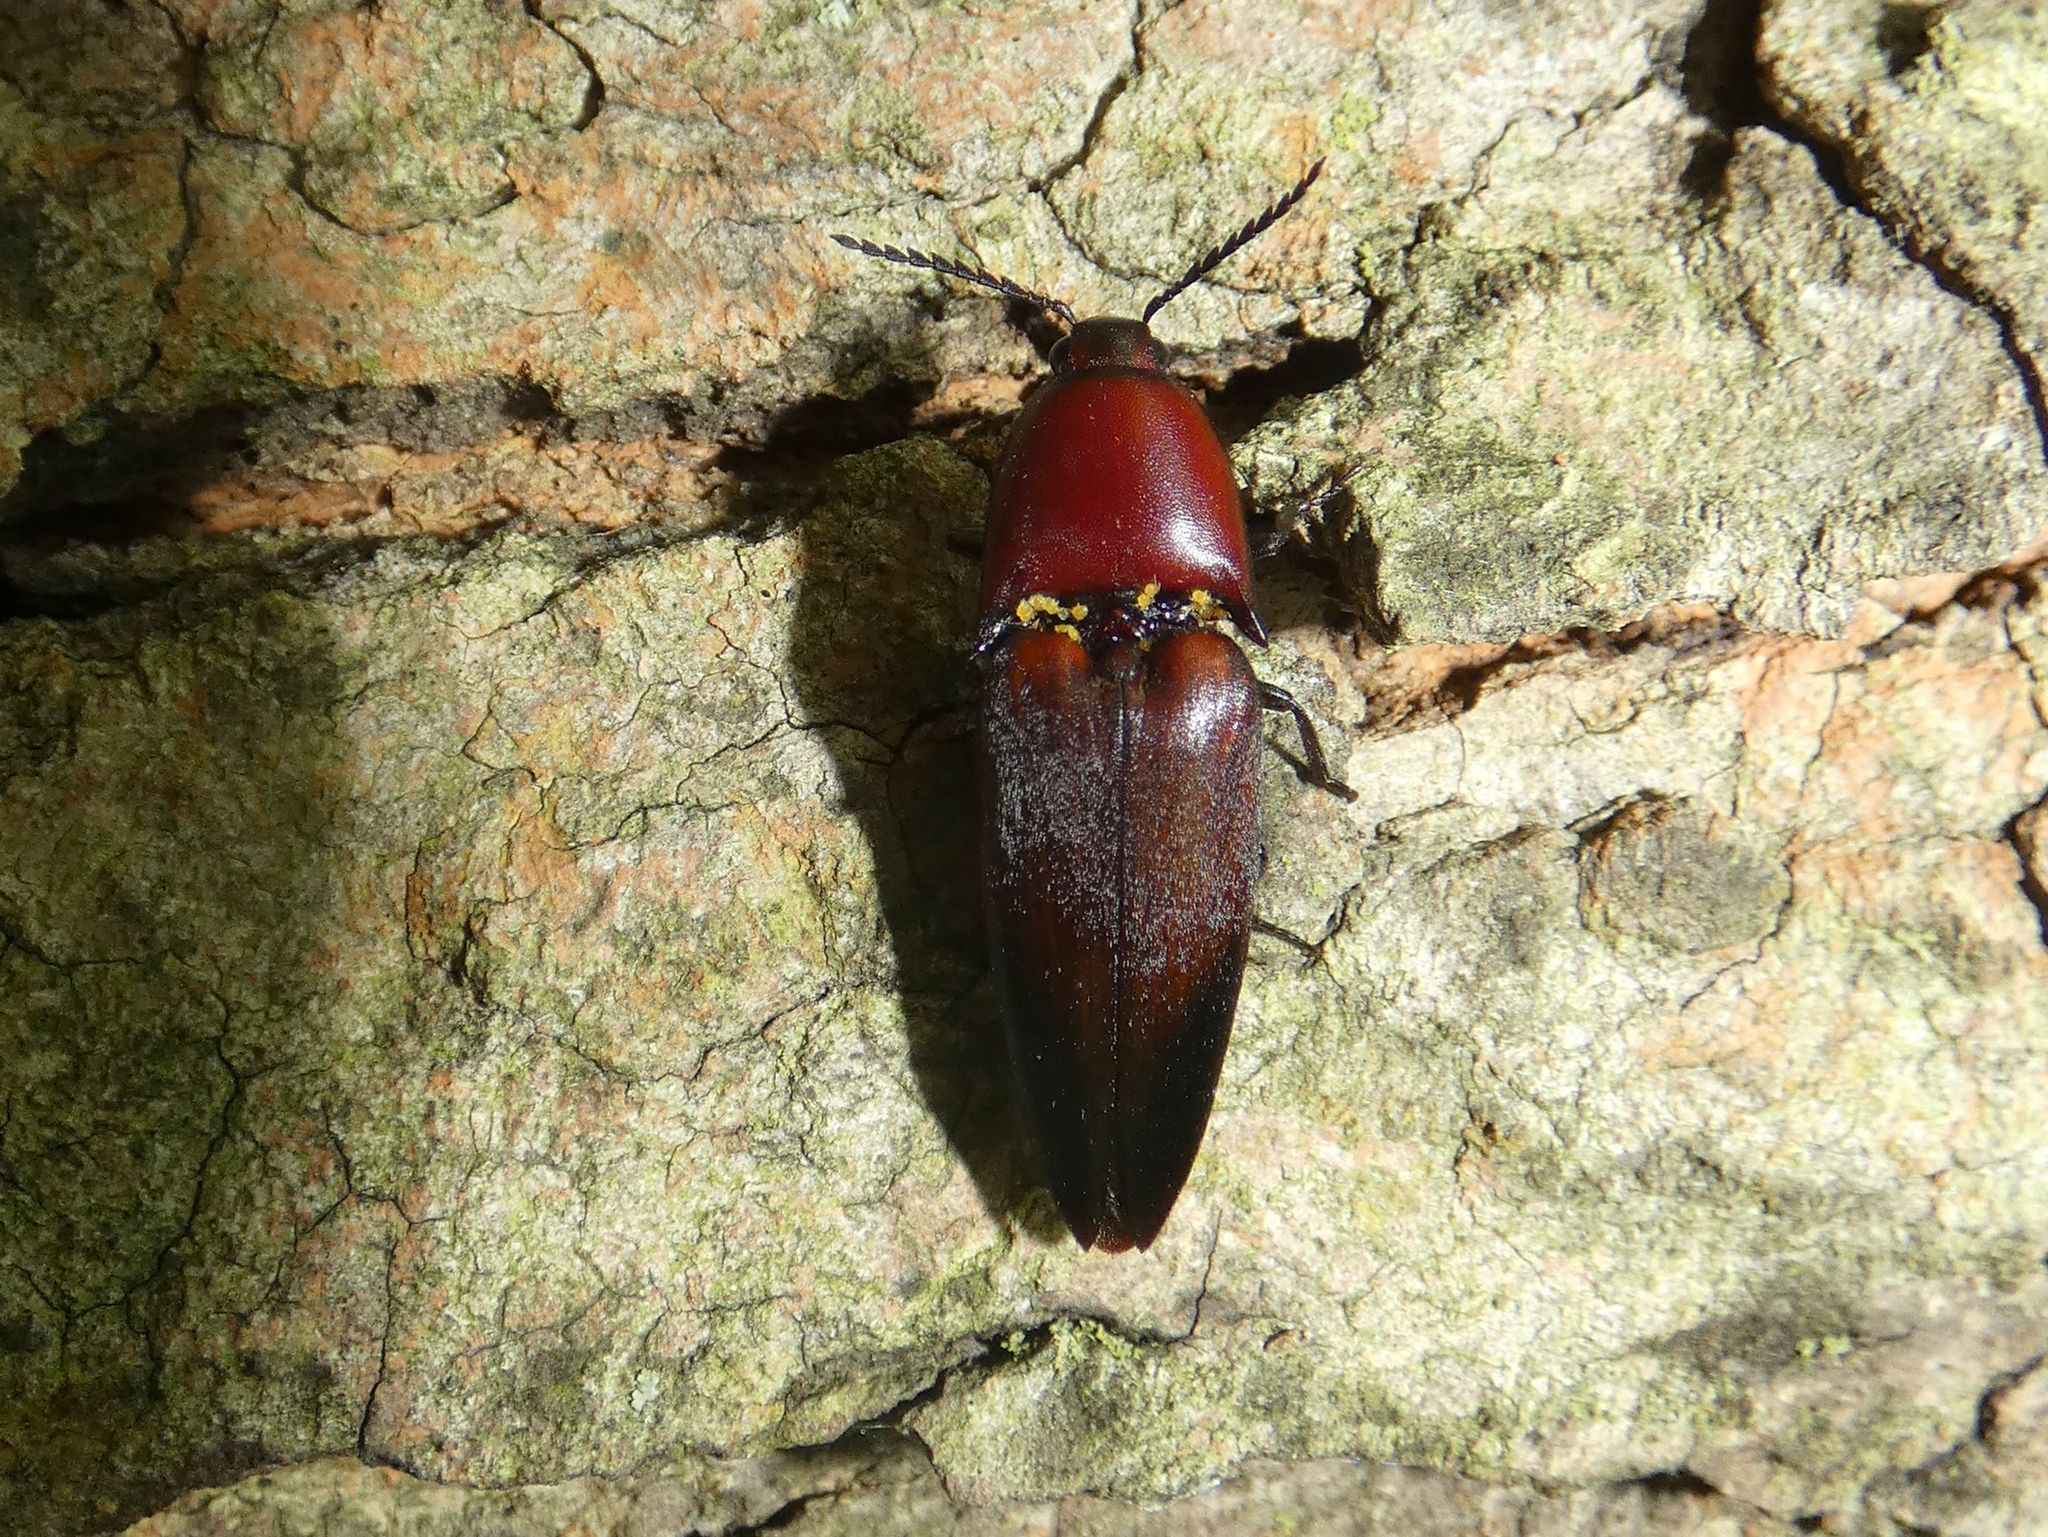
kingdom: Animalia
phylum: Arthropoda
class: Insecta
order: Coleoptera
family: Elateridae
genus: Parallelostethus
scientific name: Parallelostethus attenuatus
